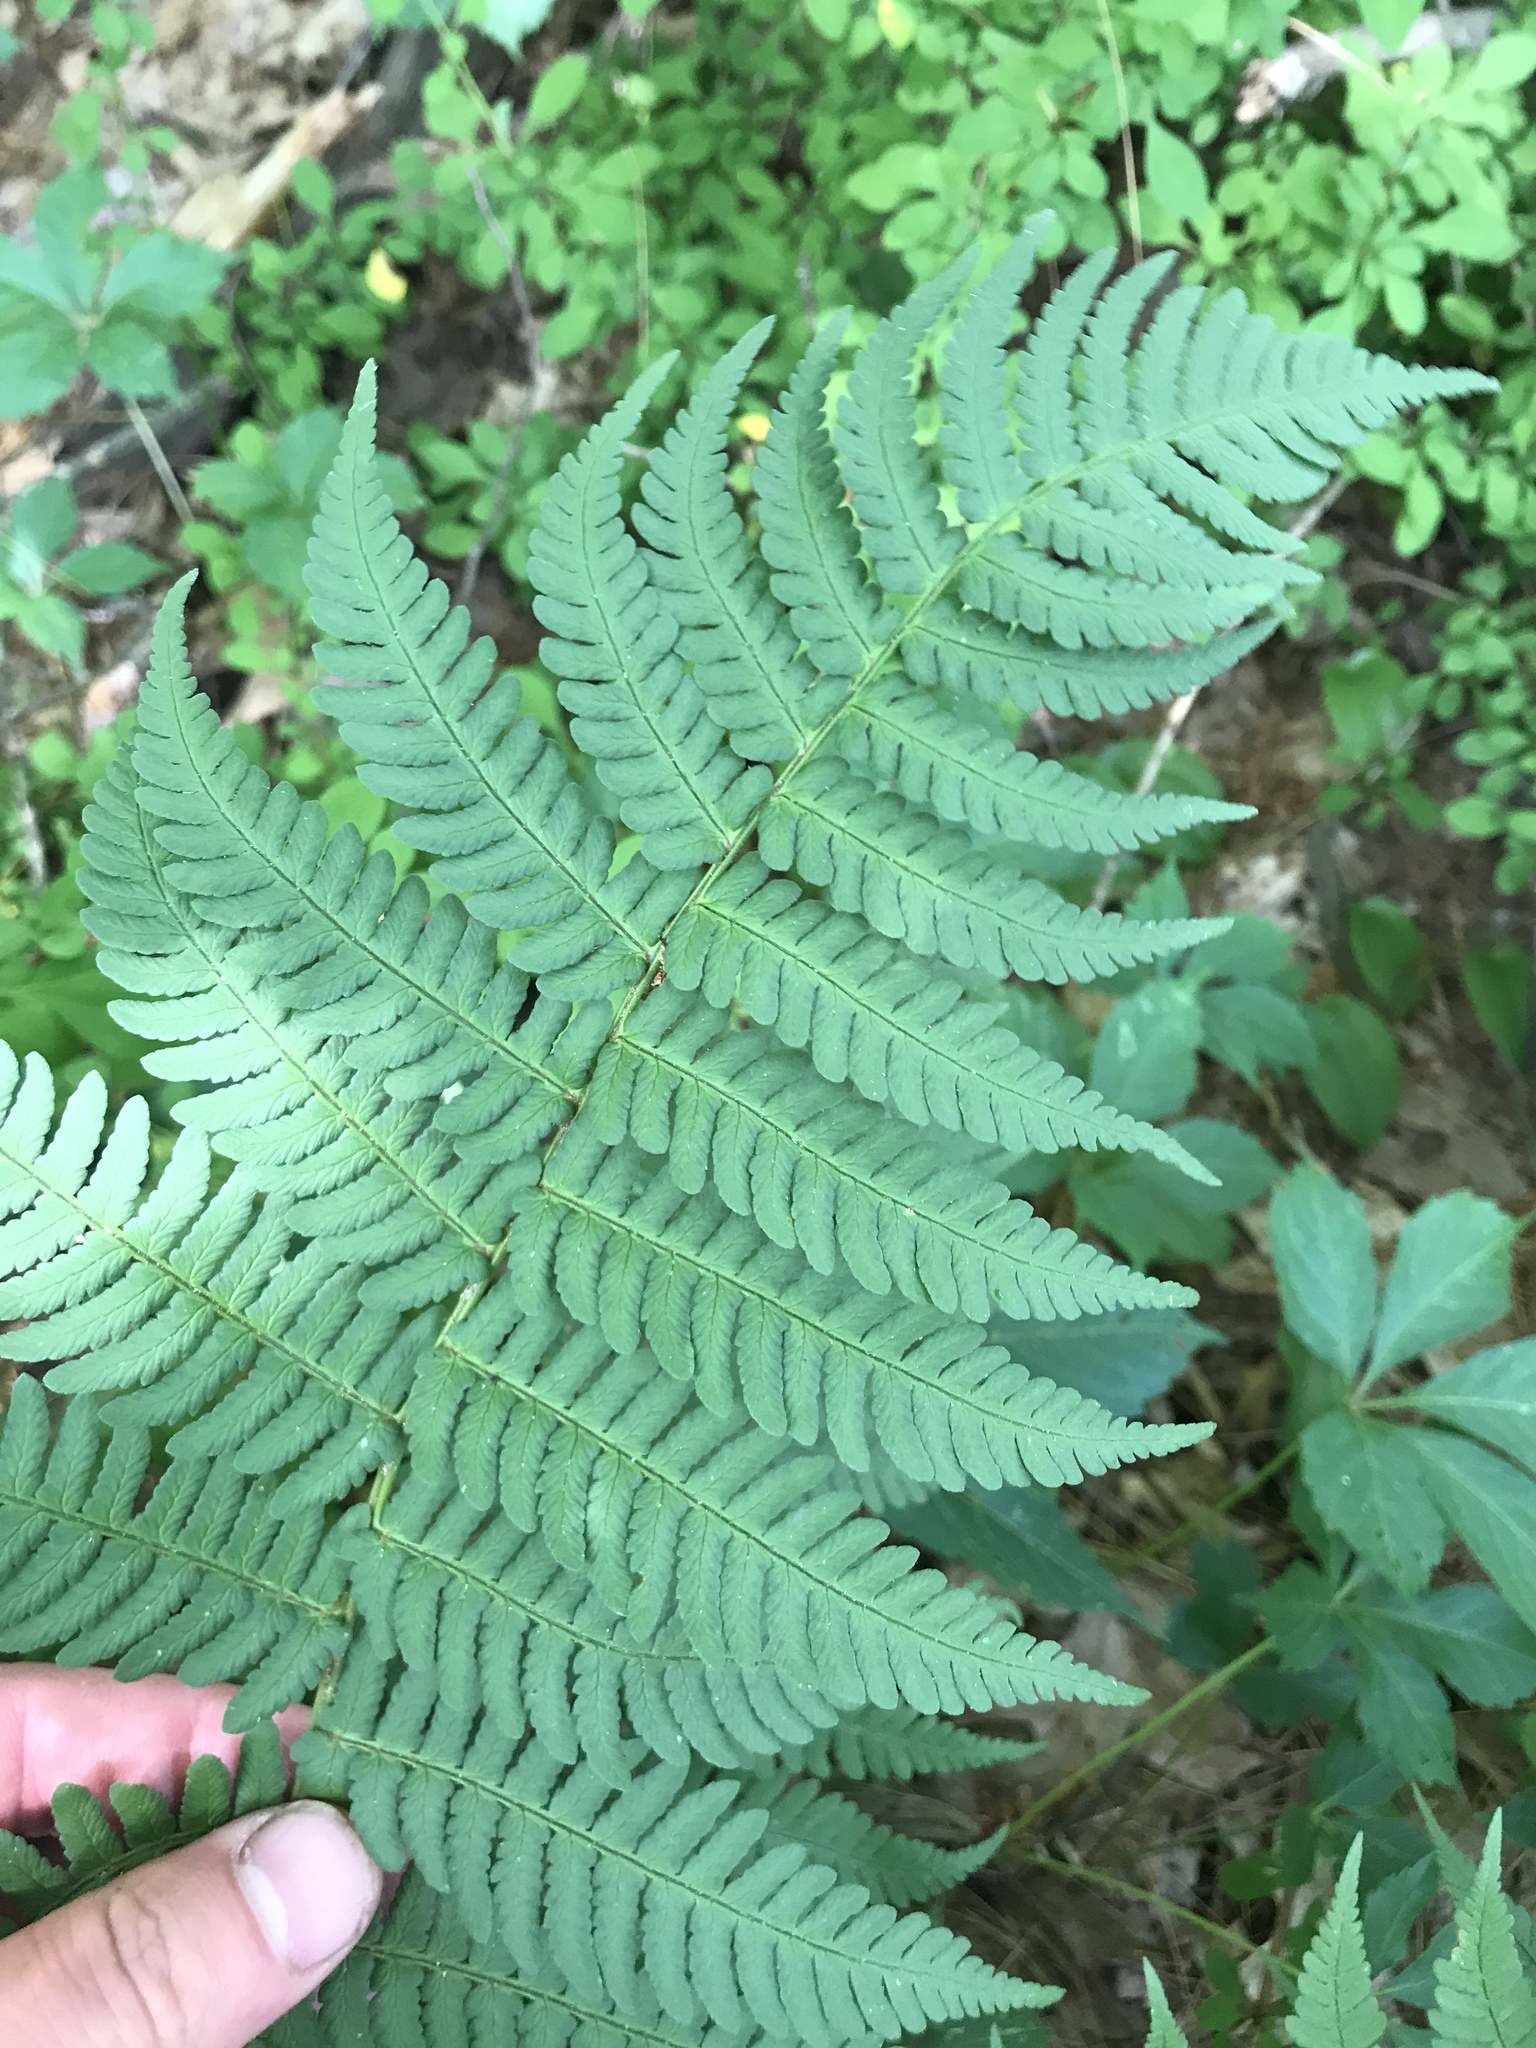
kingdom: Plantae
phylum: Tracheophyta
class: Polypodiopsida
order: Polypodiales
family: Dryopteridaceae
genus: Dryopteris
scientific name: Dryopteris marginalis
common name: Marginal wood fern
